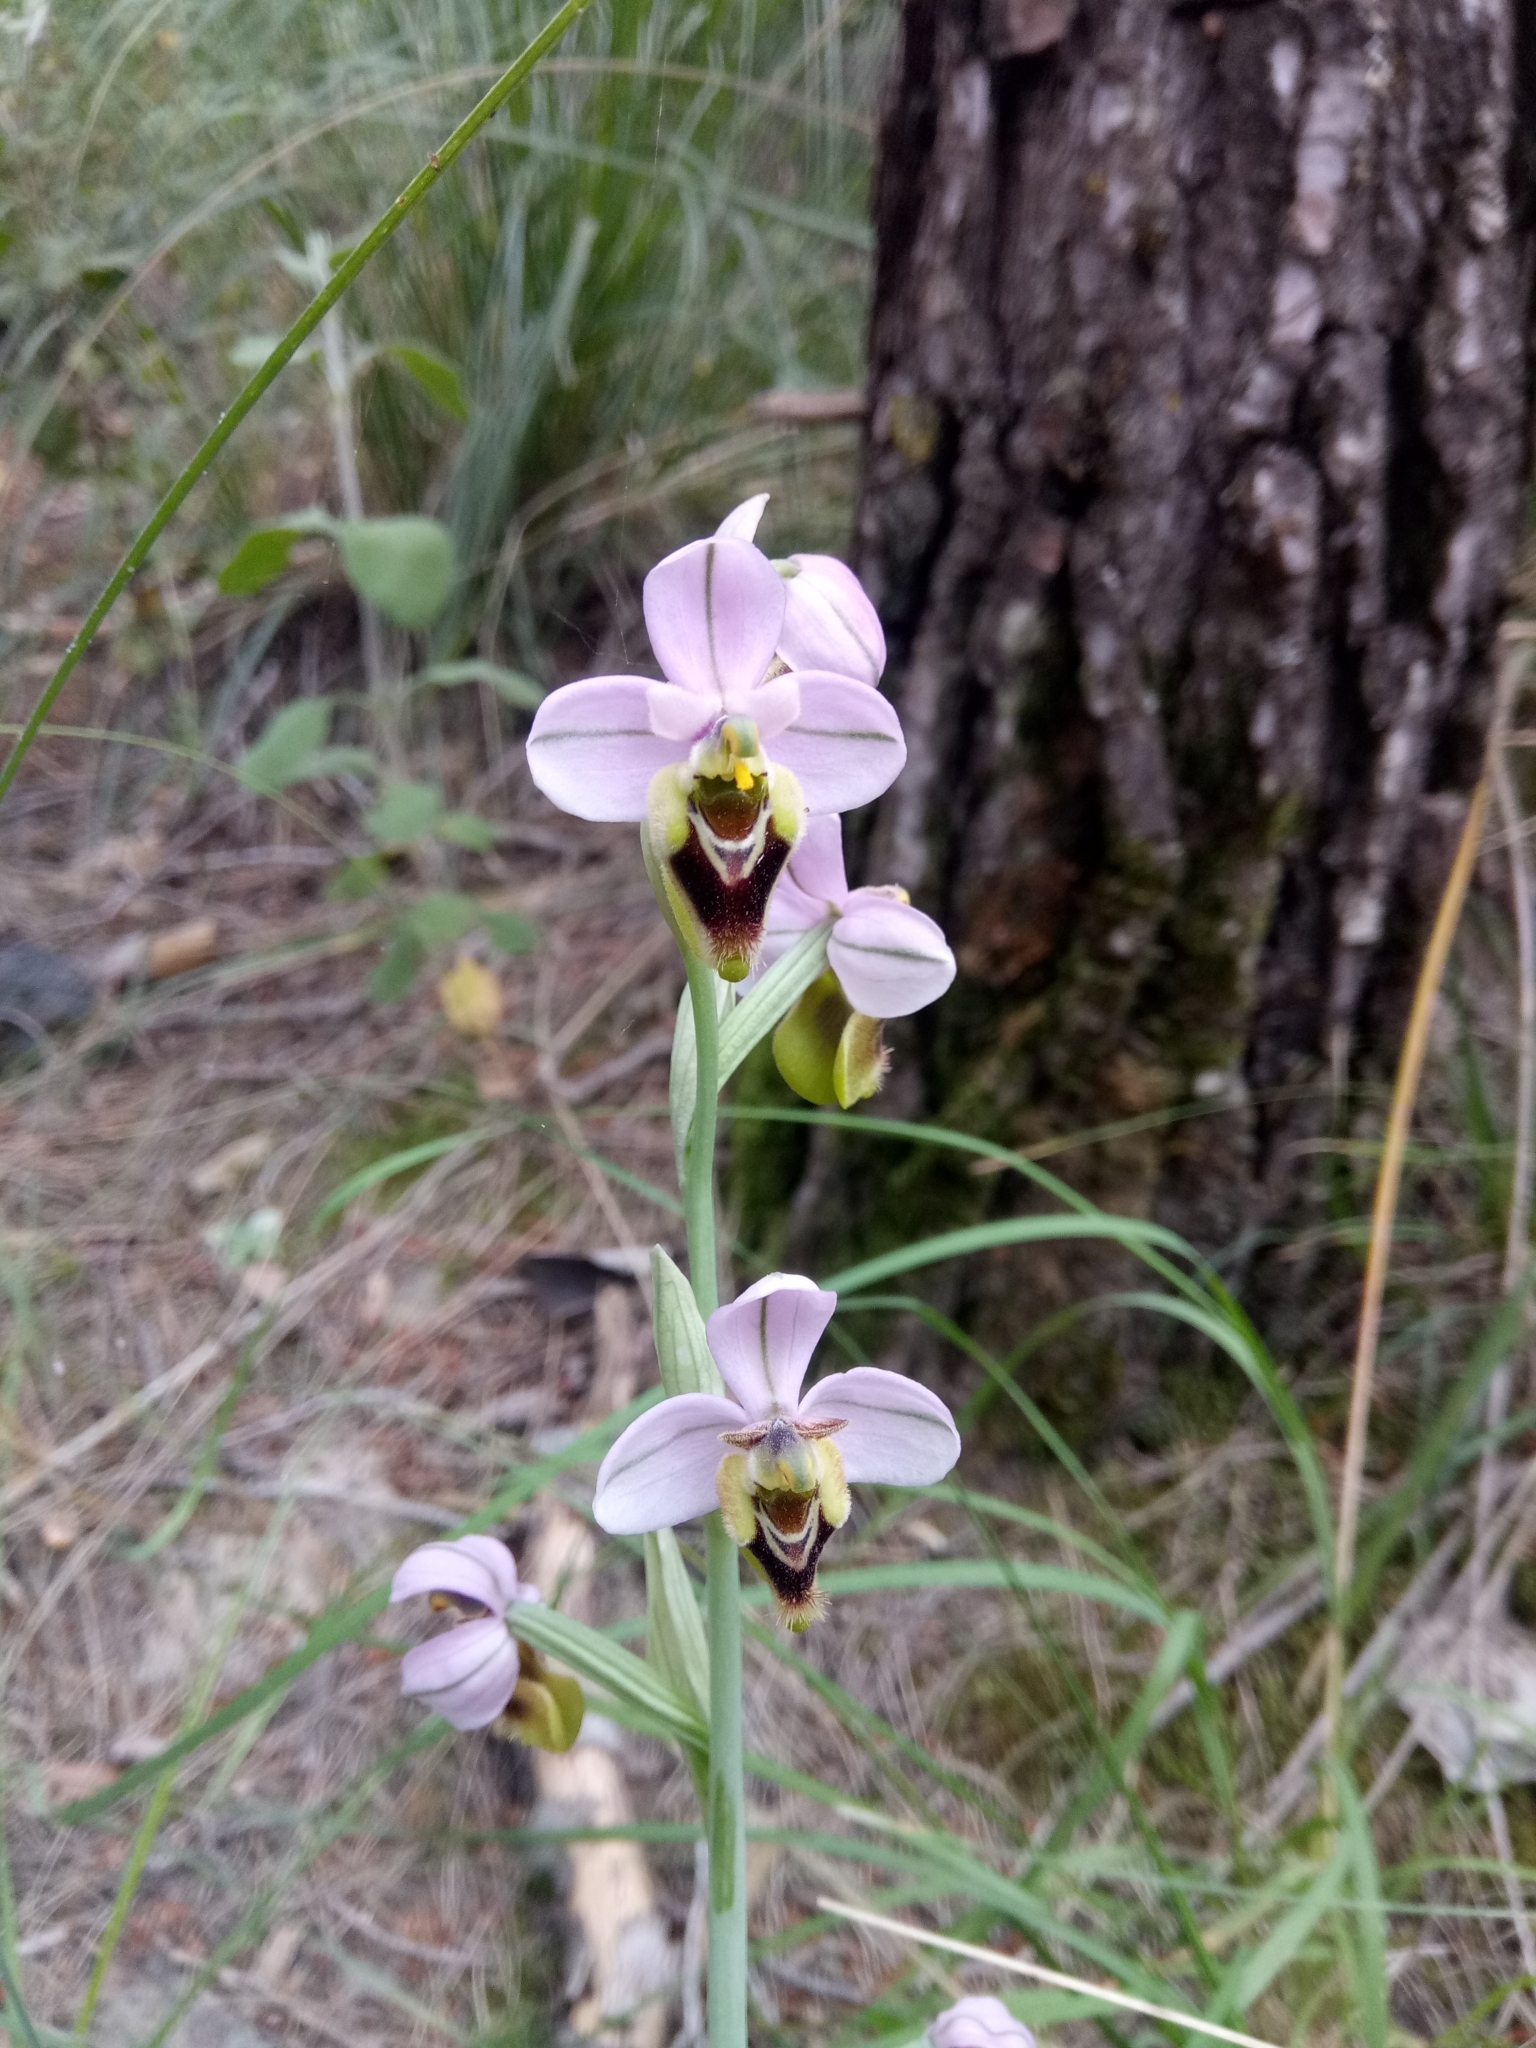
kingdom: Plantae
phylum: Tracheophyta
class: Liliopsida
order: Asparagales
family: Orchidaceae
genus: Ophrys
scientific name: Ophrys tenthredinifera
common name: Sawfly orchid
